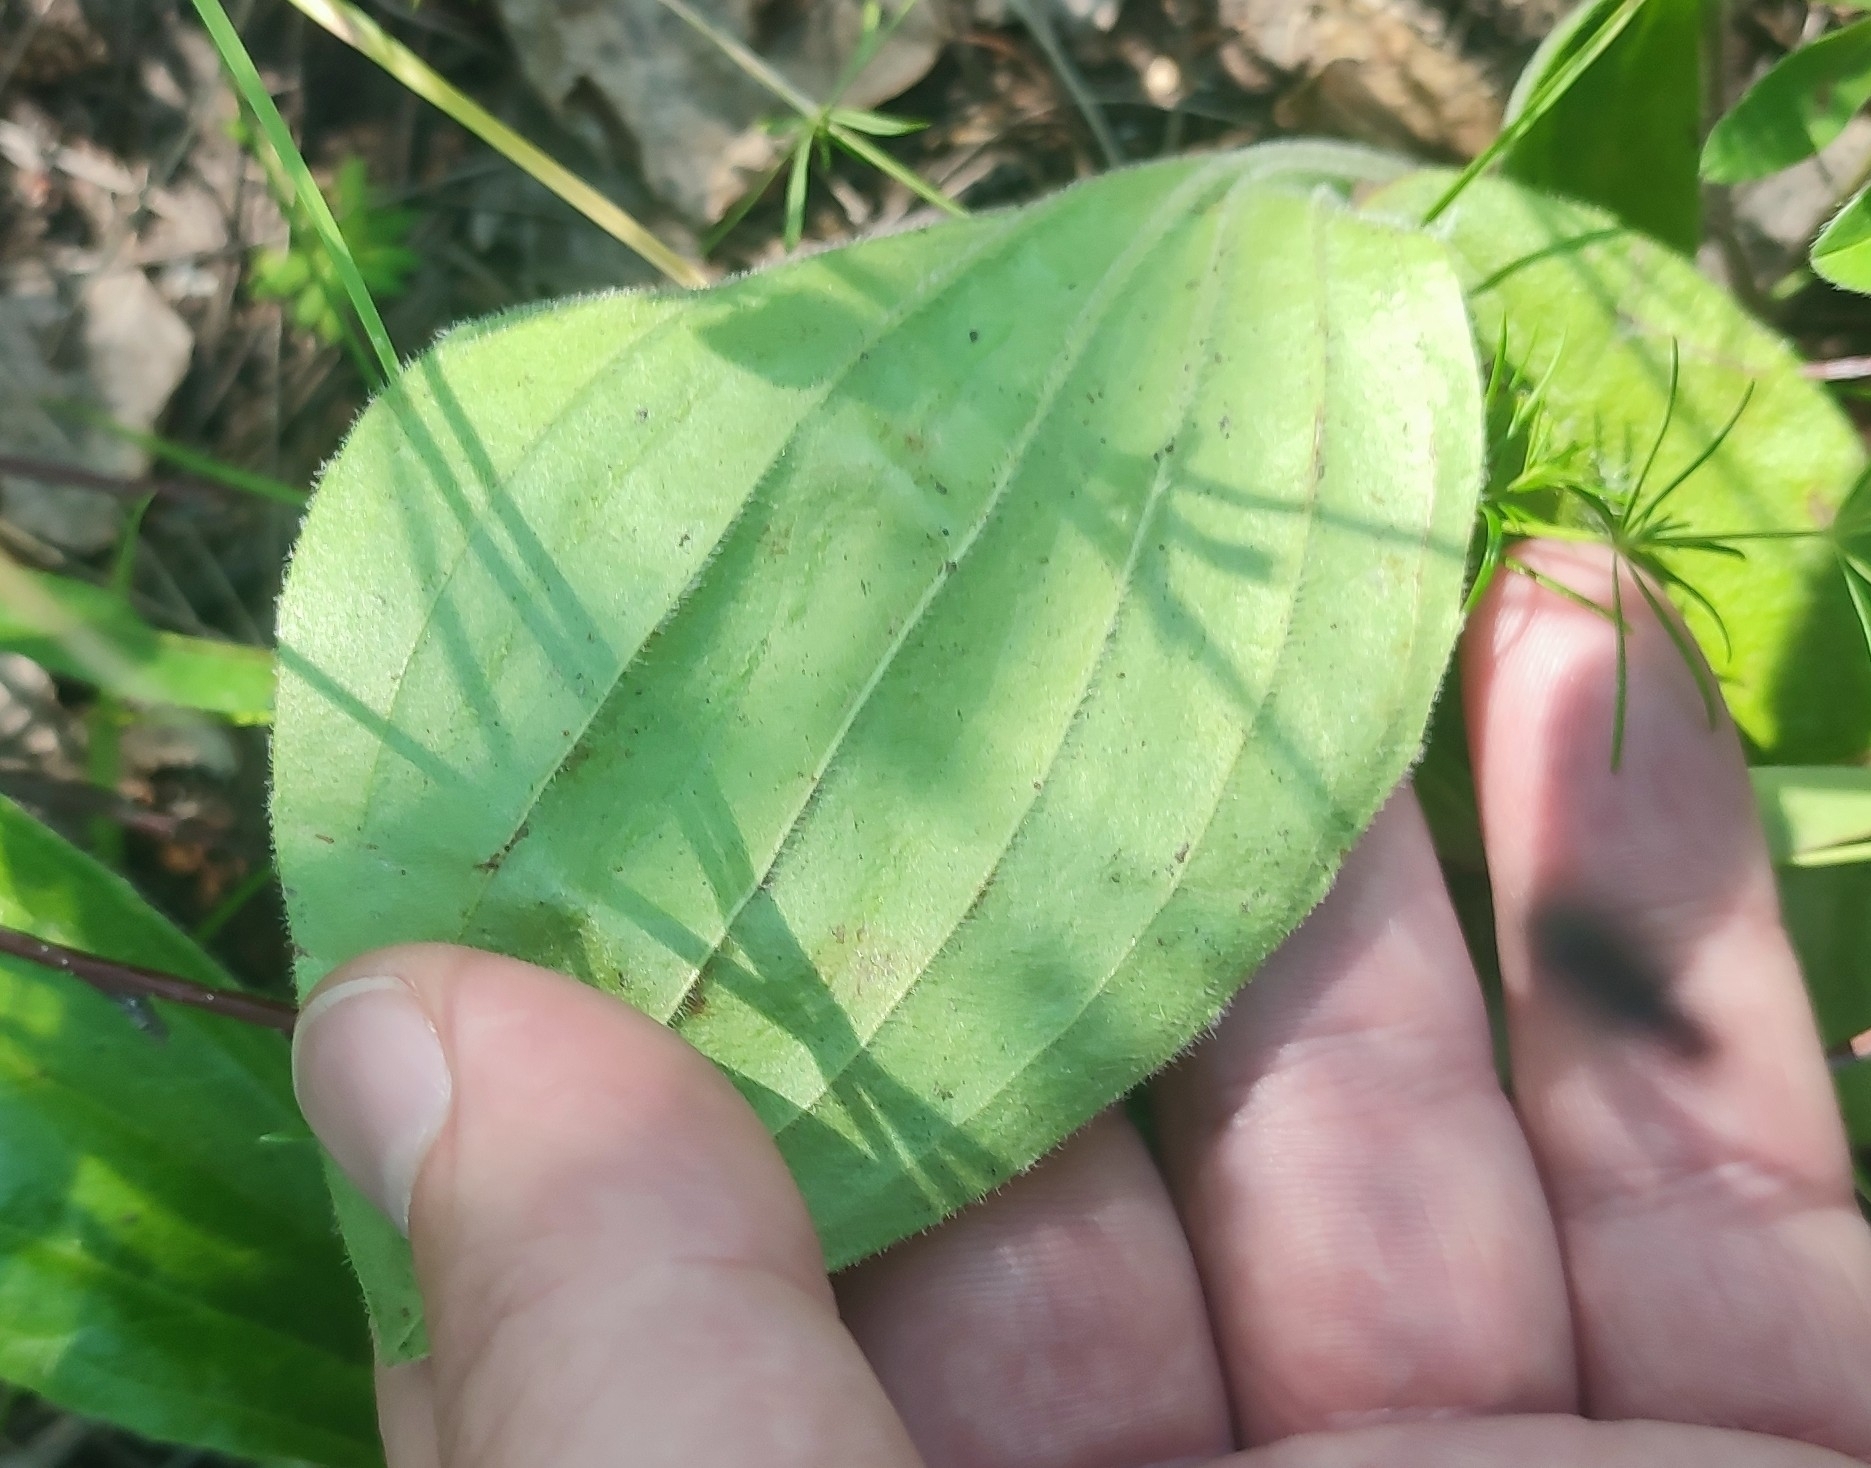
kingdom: Plantae
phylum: Tracheophyta
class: Magnoliopsida
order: Lamiales
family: Plantaginaceae
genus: Plantago
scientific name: Plantago media
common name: Hoary plantain
